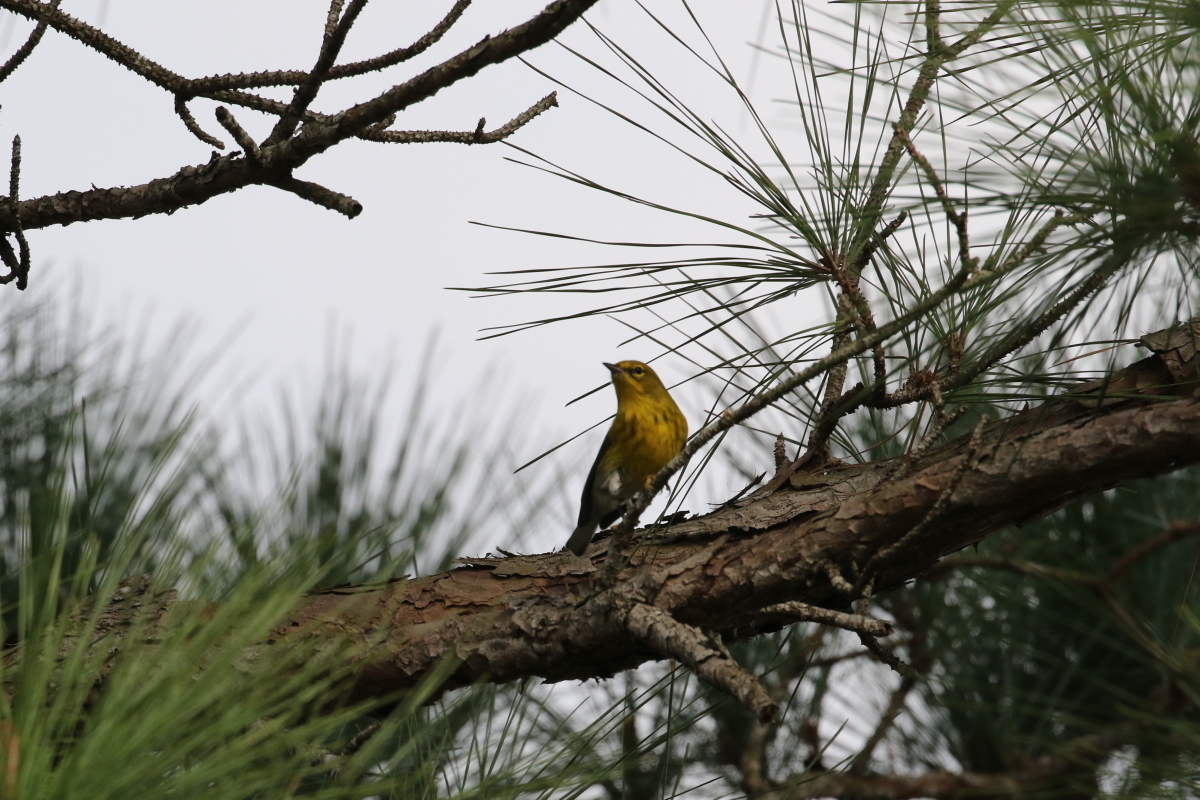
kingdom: Animalia
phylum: Chordata
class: Aves
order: Passeriformes
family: Parulidae
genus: Setophaga
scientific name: Setophaga pinus
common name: Pine warbler
